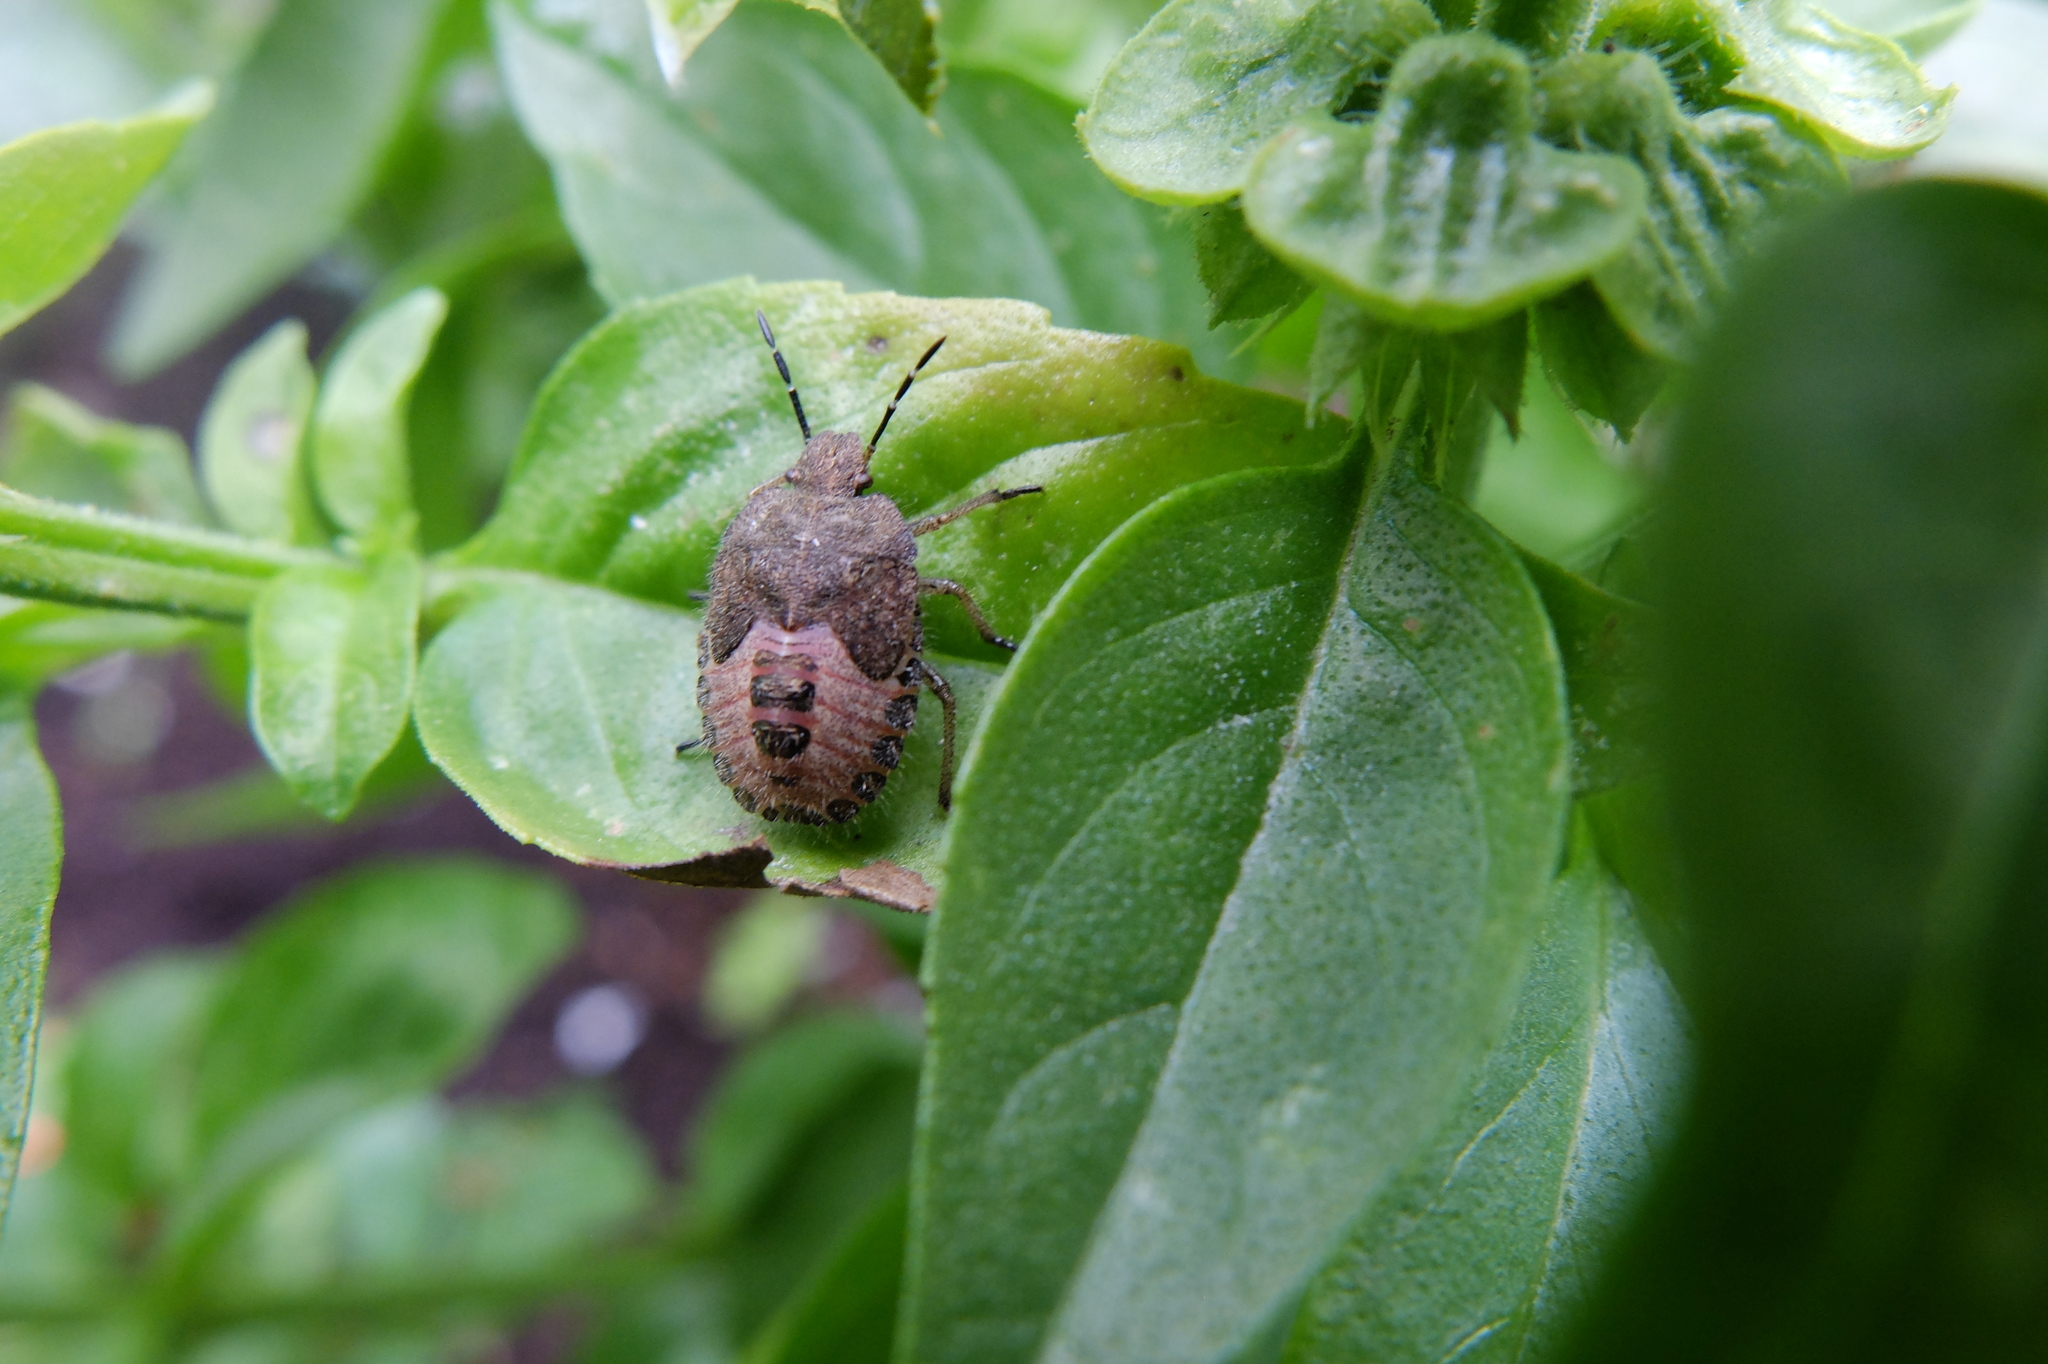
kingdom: Animalia
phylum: Arthropoda
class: Insecta
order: Hemiptera
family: Pentatomidae
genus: Dolycoris
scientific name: Dolycoris baccarum
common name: Sloe bug
